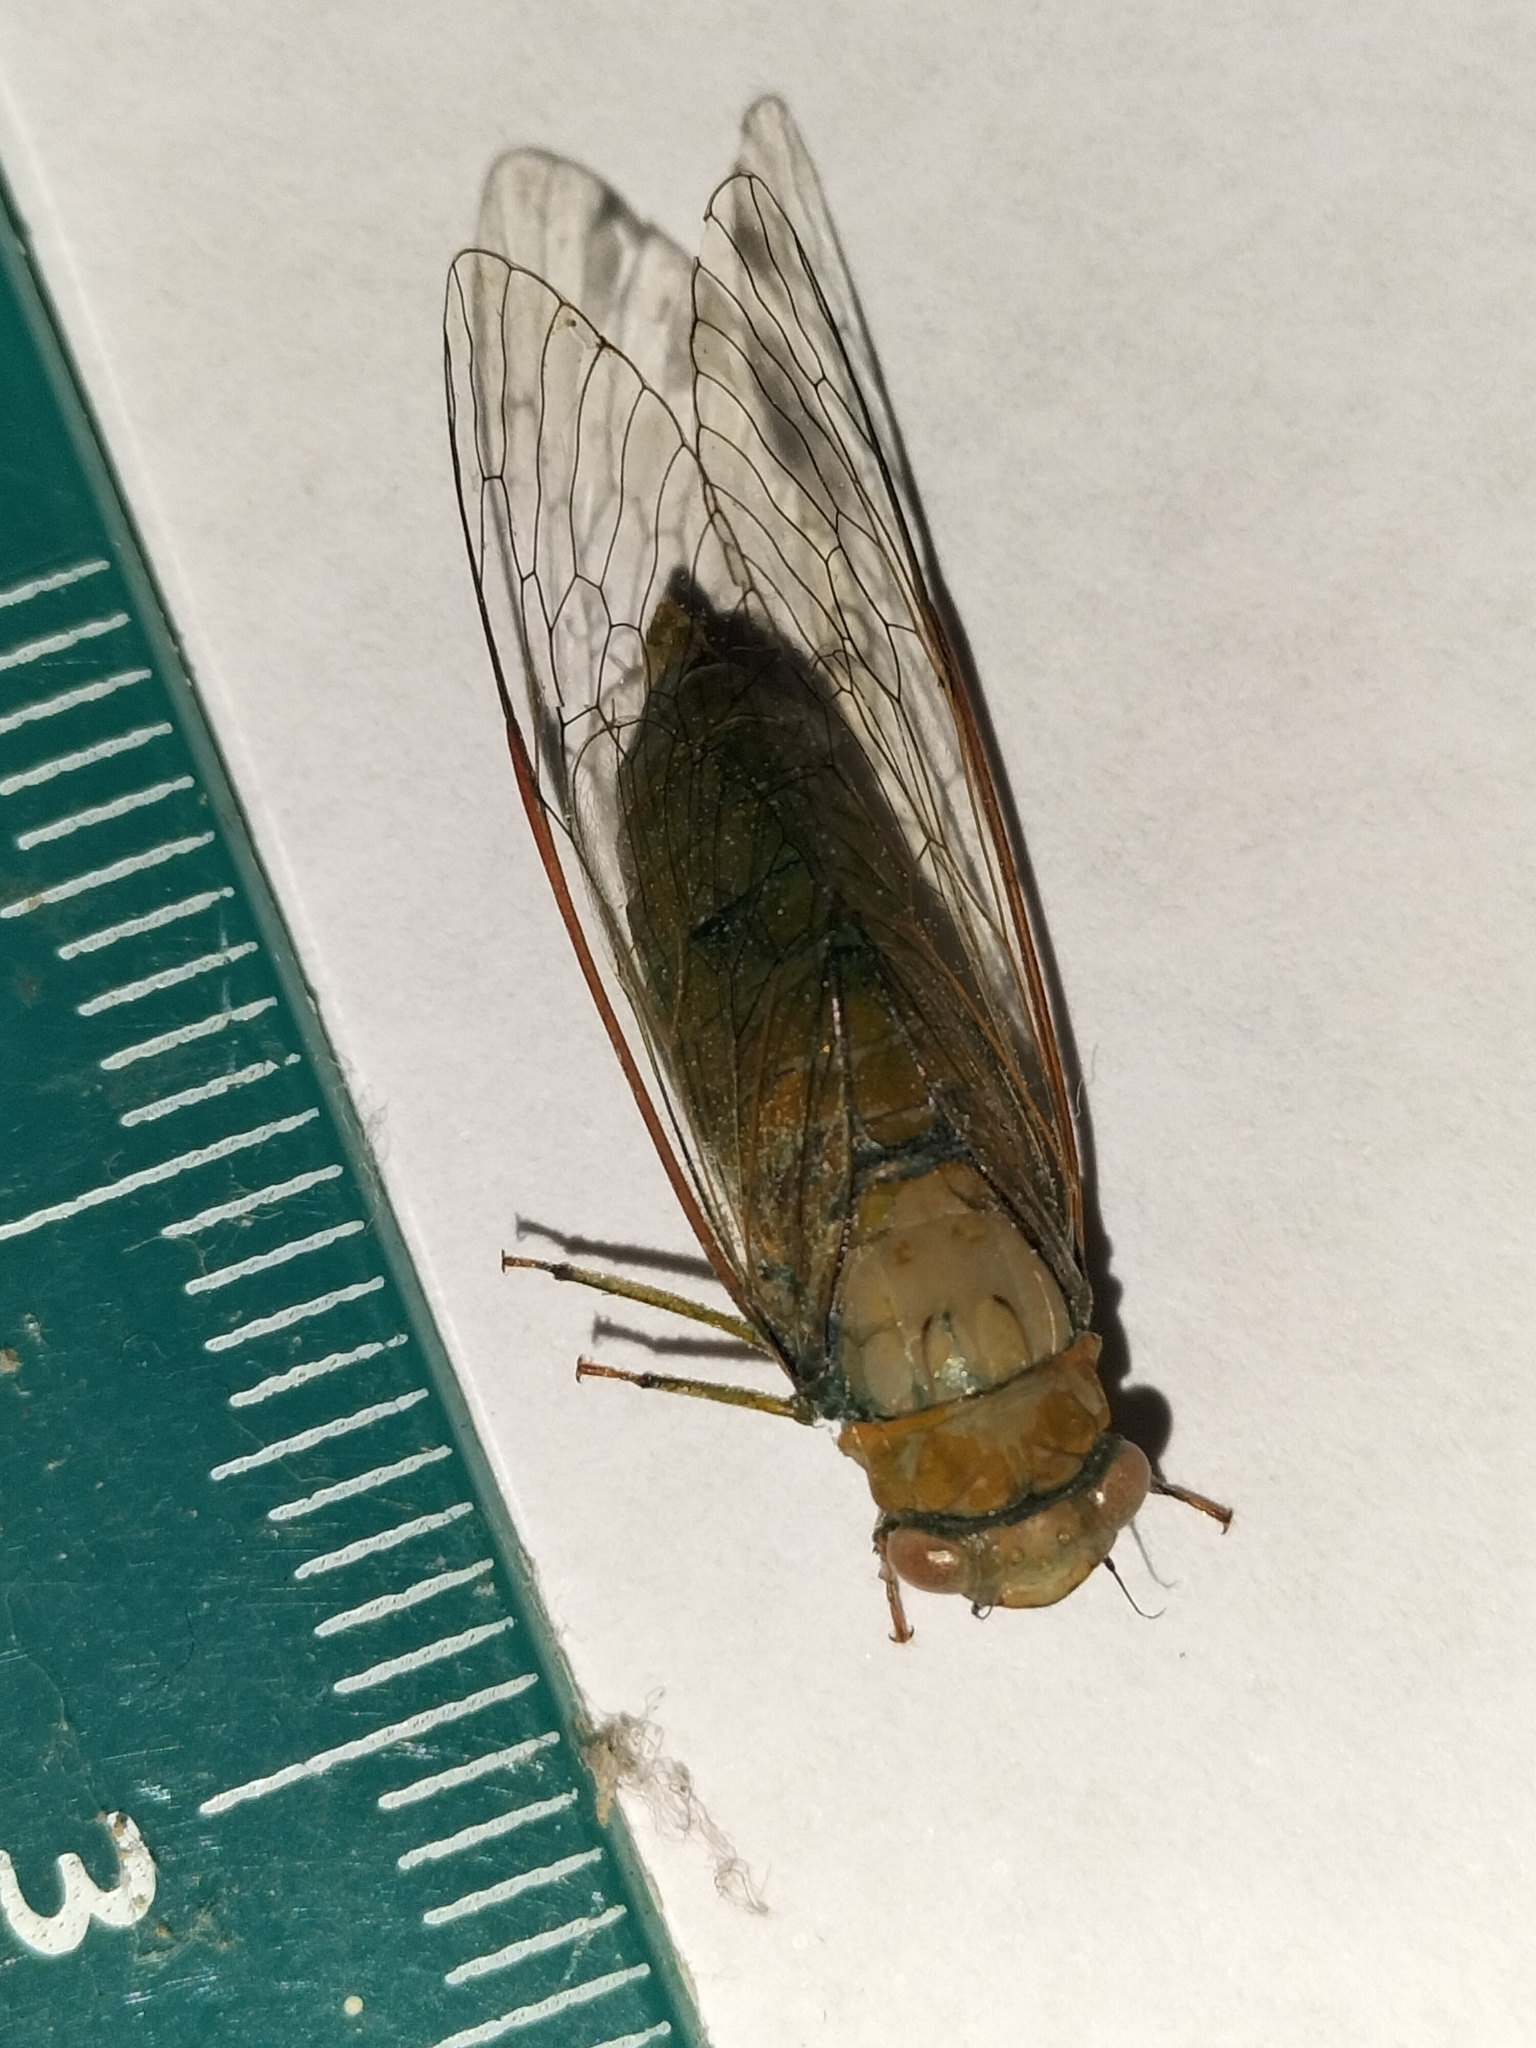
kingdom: Animalia
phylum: Arthropoda
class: Insecta
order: Hemiptera
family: Cicadidae
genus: Owra
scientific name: Owra insignis
